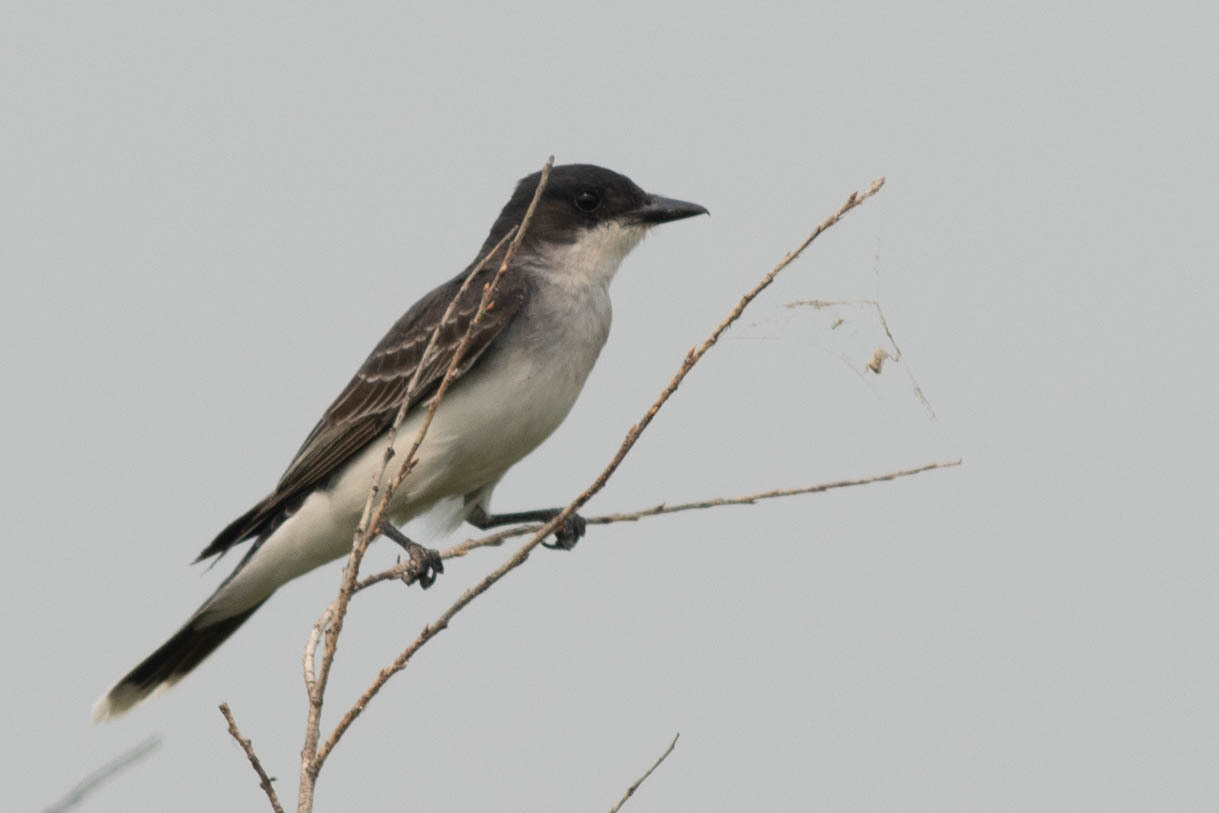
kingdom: Animalia
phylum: Chordata
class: Aves
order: Passeriformes
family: Tyrannidae
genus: Tyrannus
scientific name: Tyrannus tyrannus
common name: Eastern kingbird
